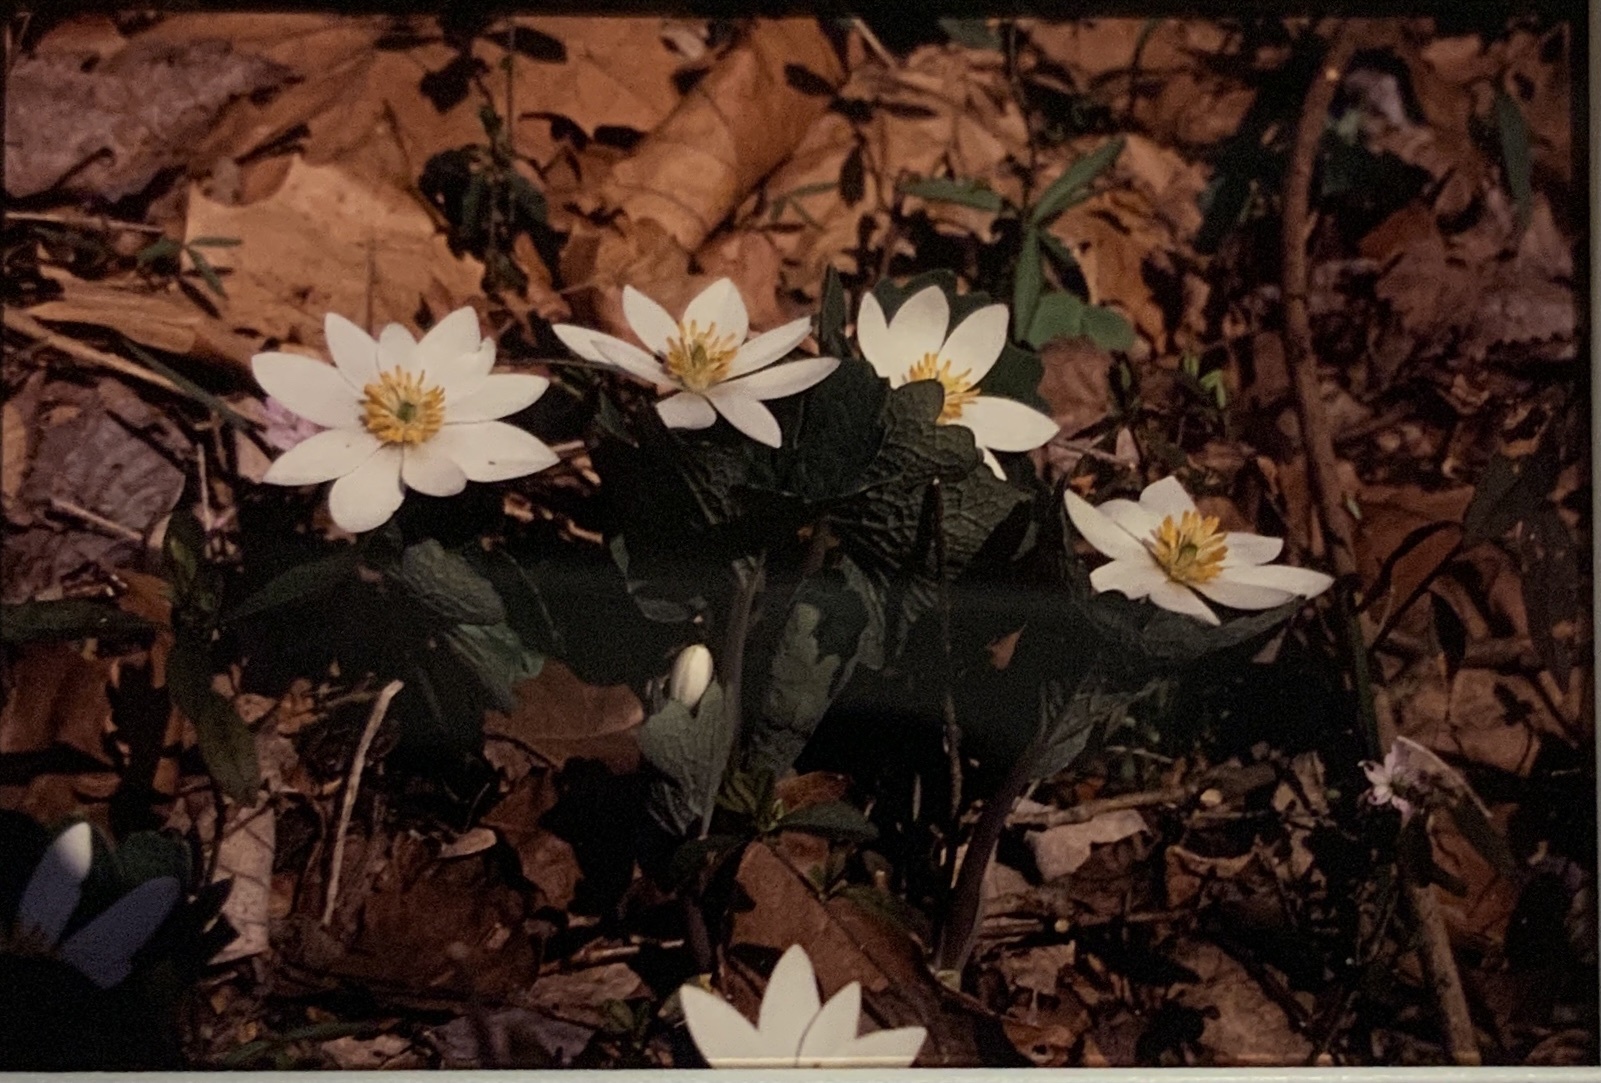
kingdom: Plantae
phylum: Tracheophyta
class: Magnoliopsida
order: Ranunculales
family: Papaveraceae
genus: Sanguinaria
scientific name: Sanguinaria canadensis
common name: Bloodroot
